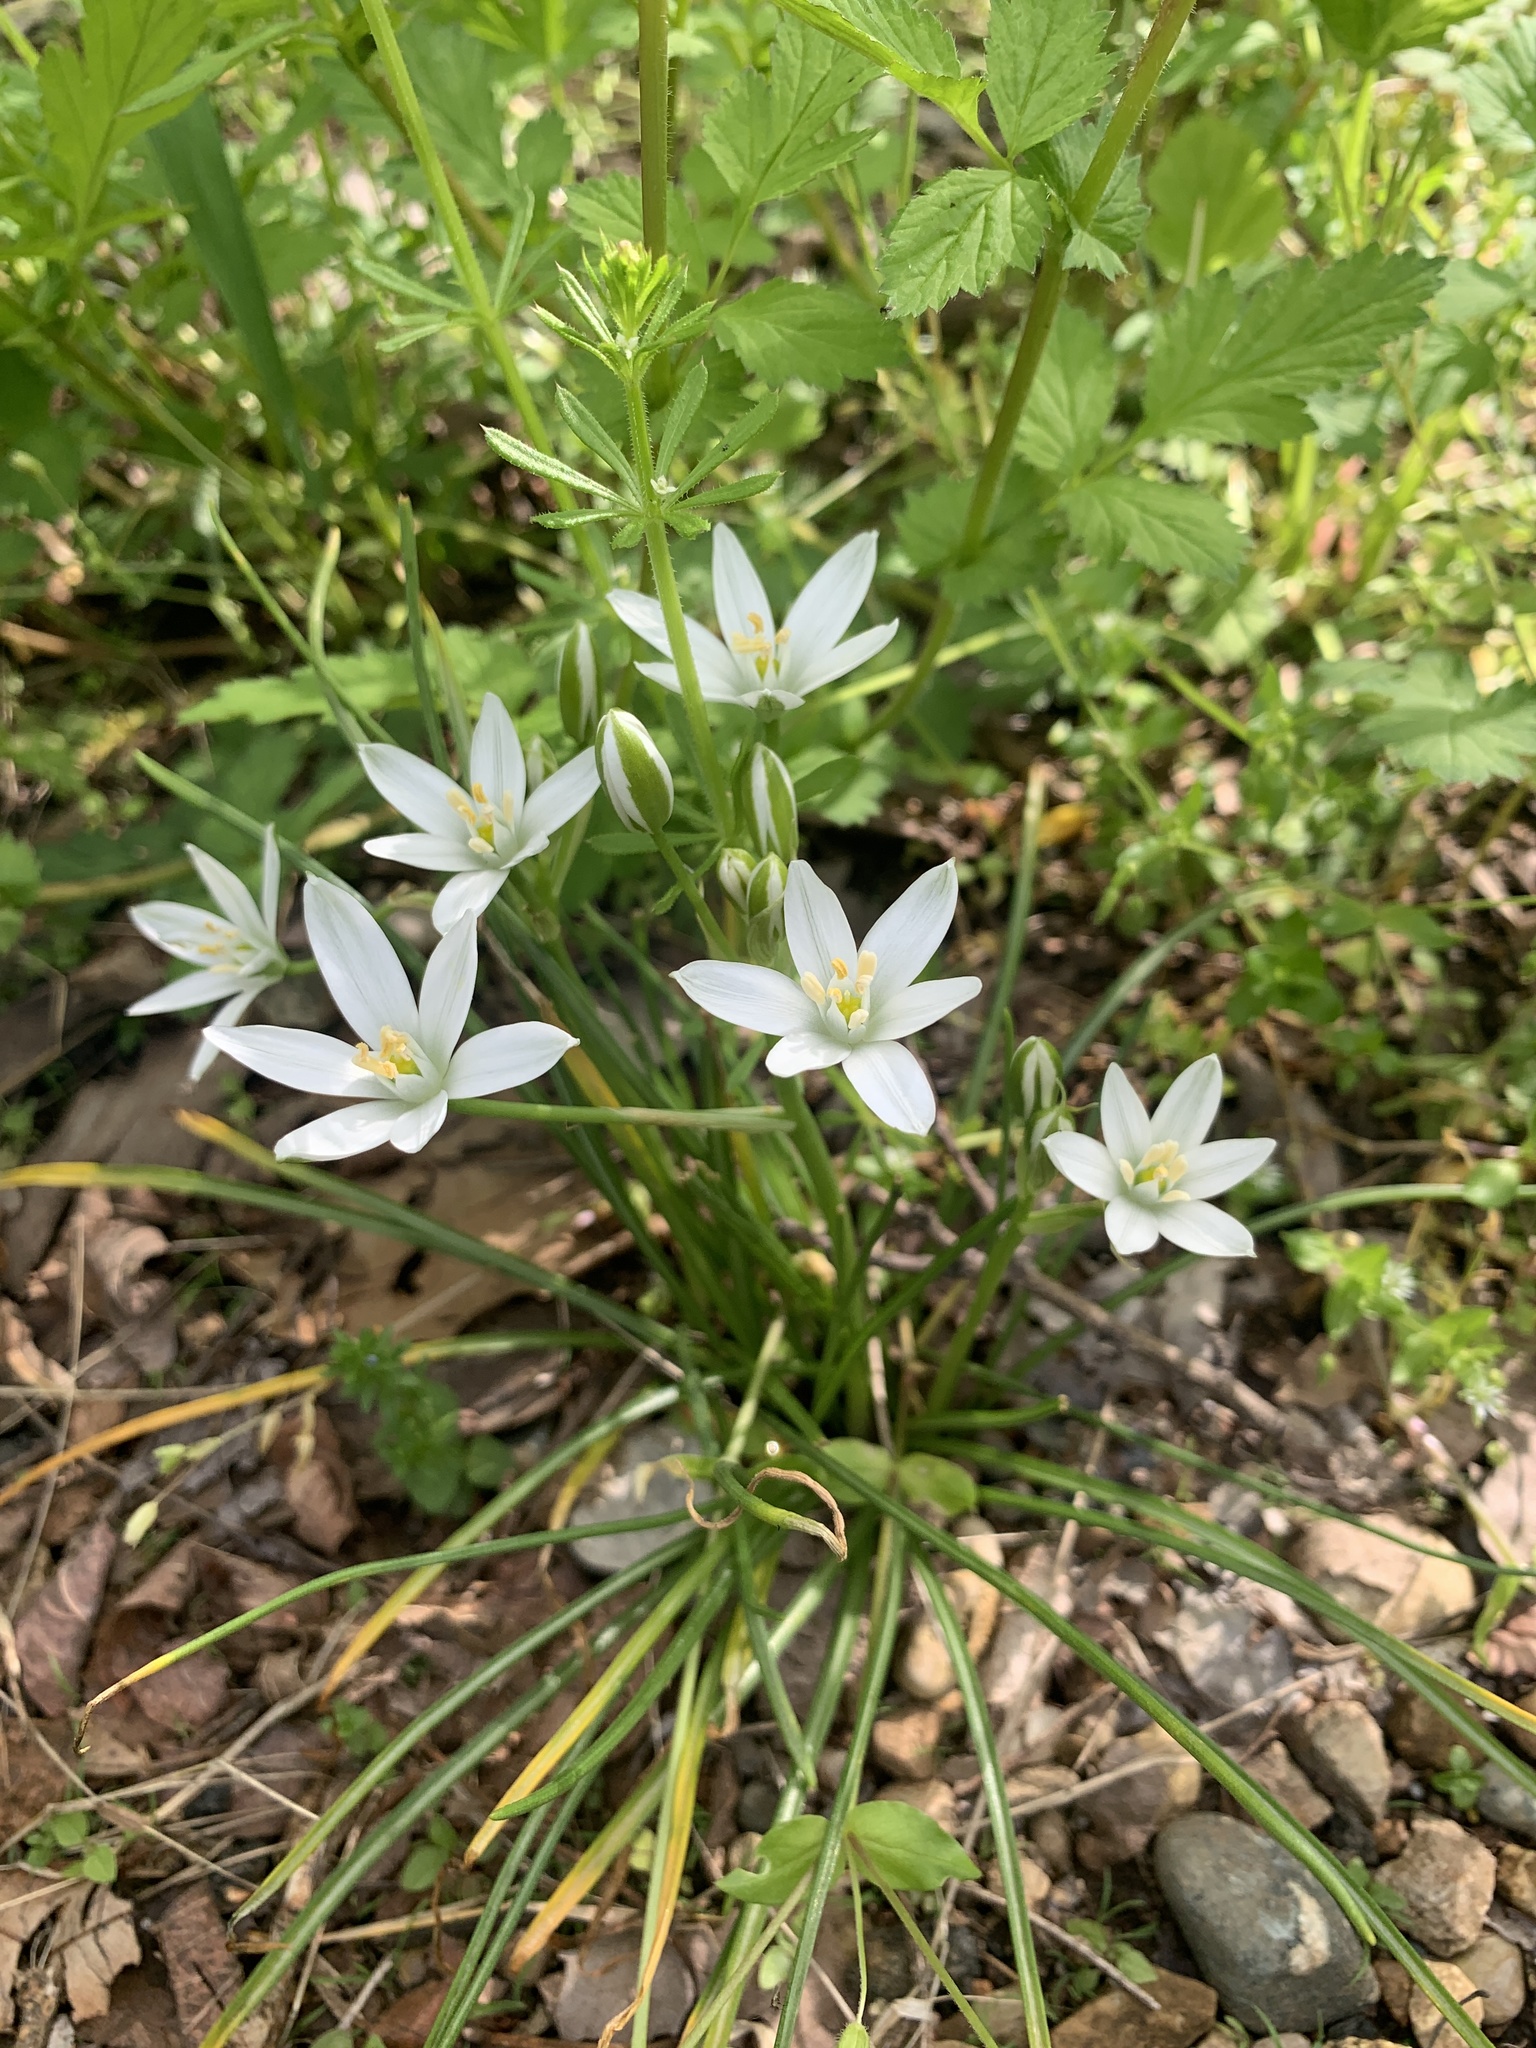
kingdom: Plantae
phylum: Tracheophyta
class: Liliopsida
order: Asparagales
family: Asparagaceae
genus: Ornithogalum
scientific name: Ornithogalum umbellatum
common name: Garden star-of-bethlehem
